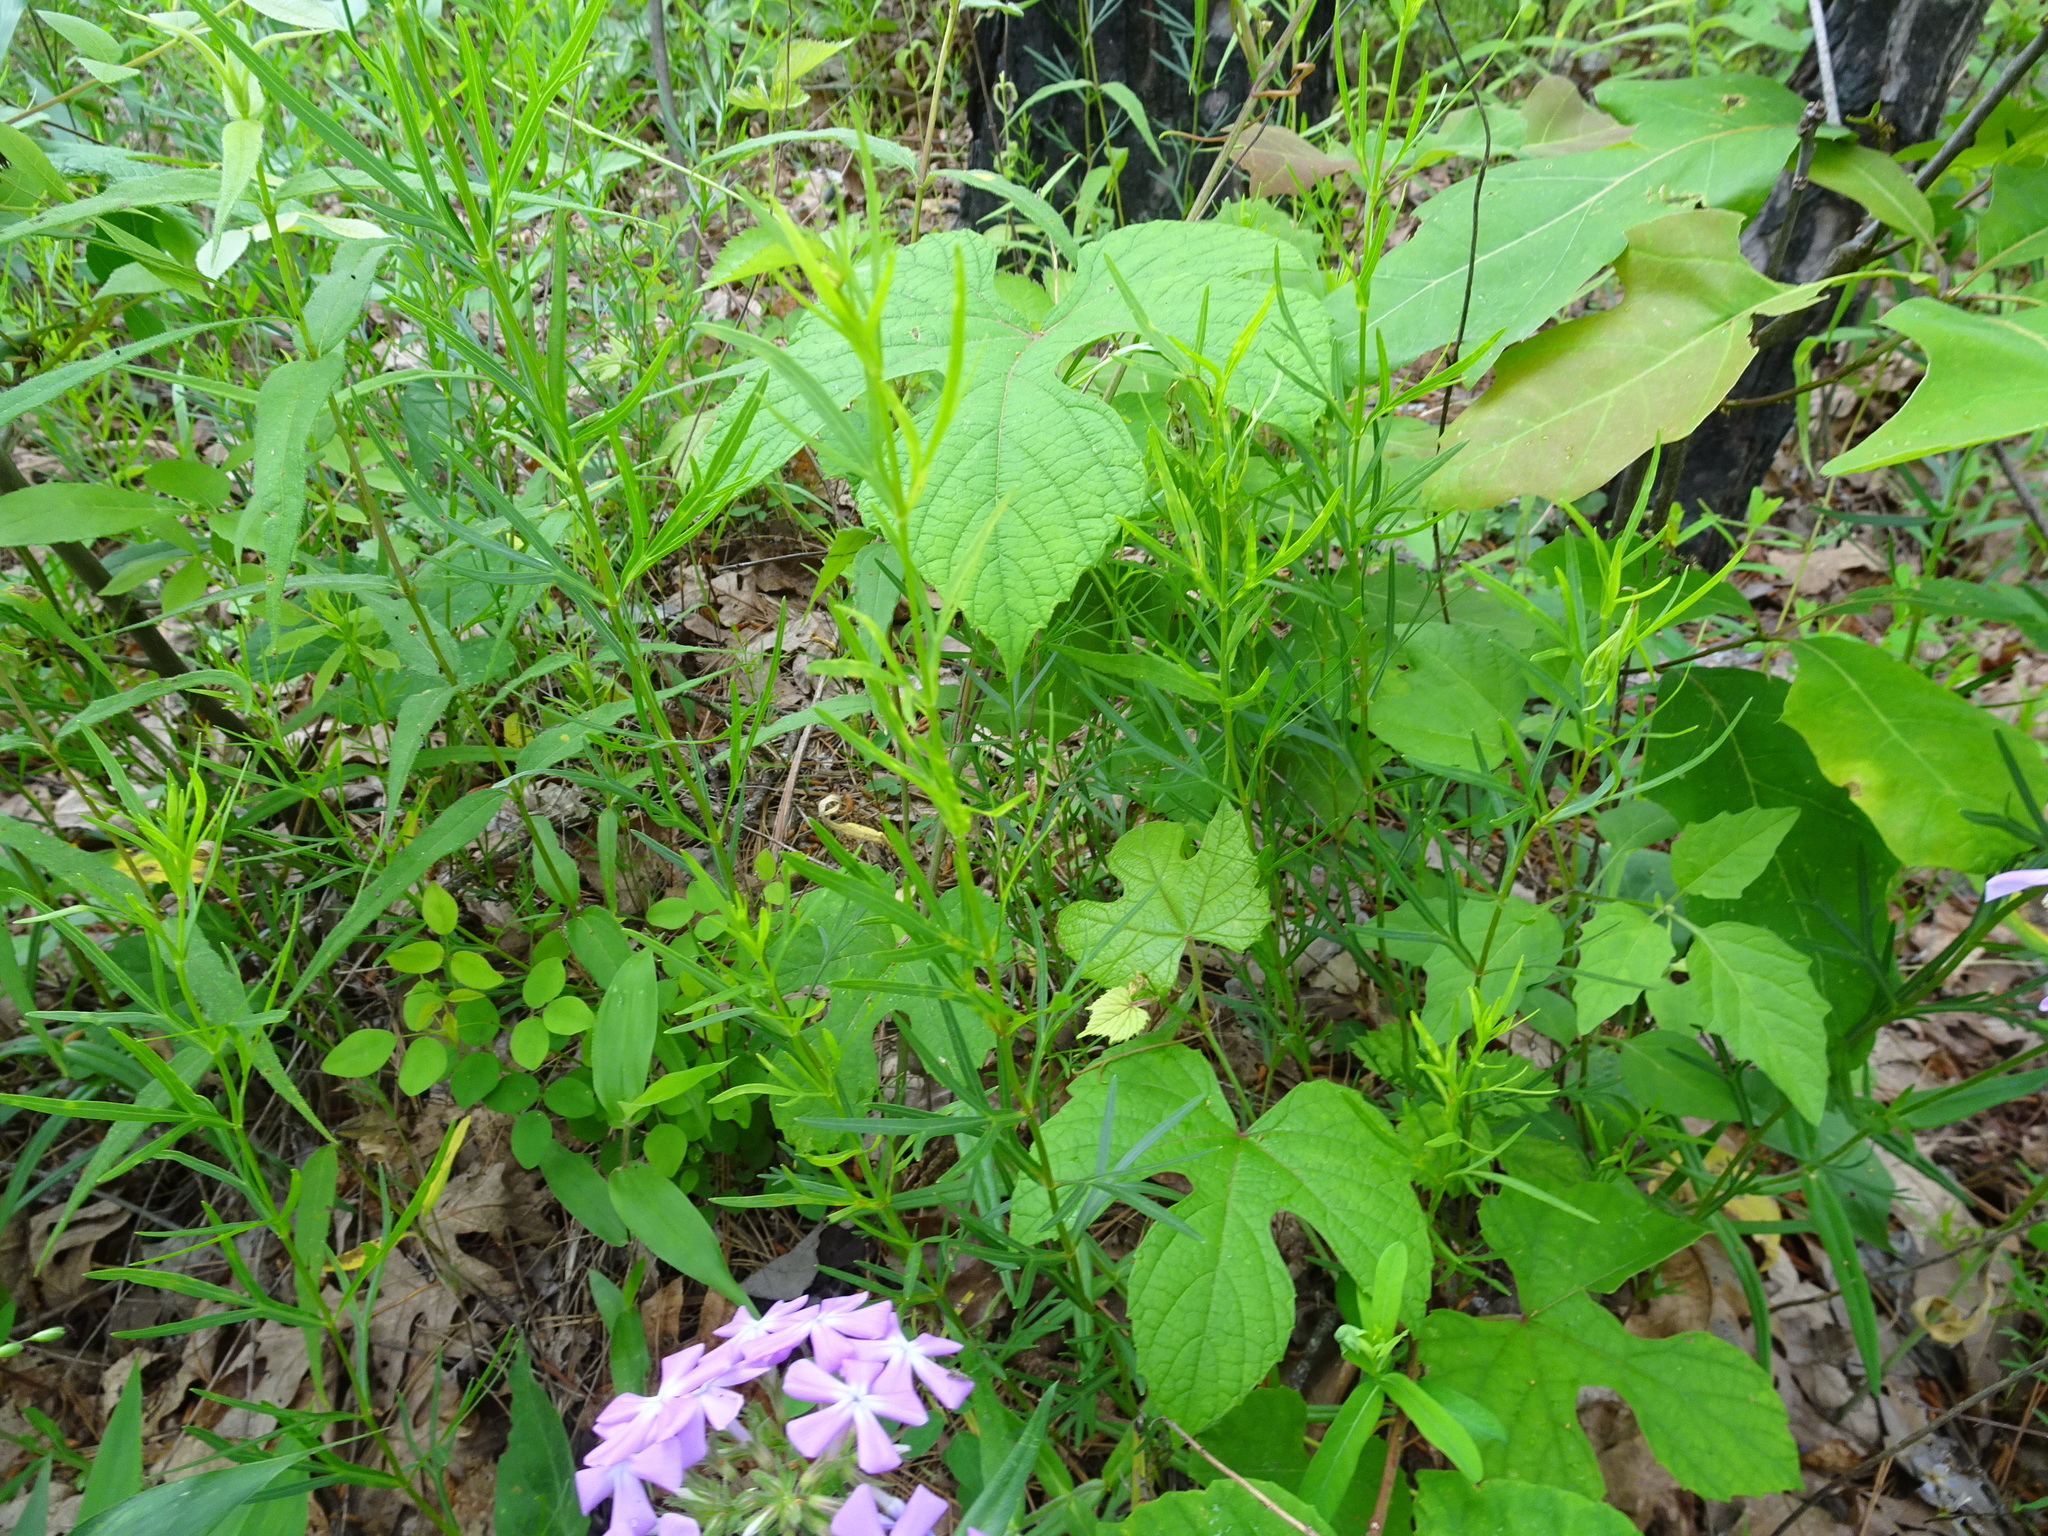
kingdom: Plantae
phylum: Tracheophyta
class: Magnoliopsida
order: Asterales
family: Asteraceae
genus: Coreopsis
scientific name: Coreopsis palmata
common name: Prairie coreopsis
